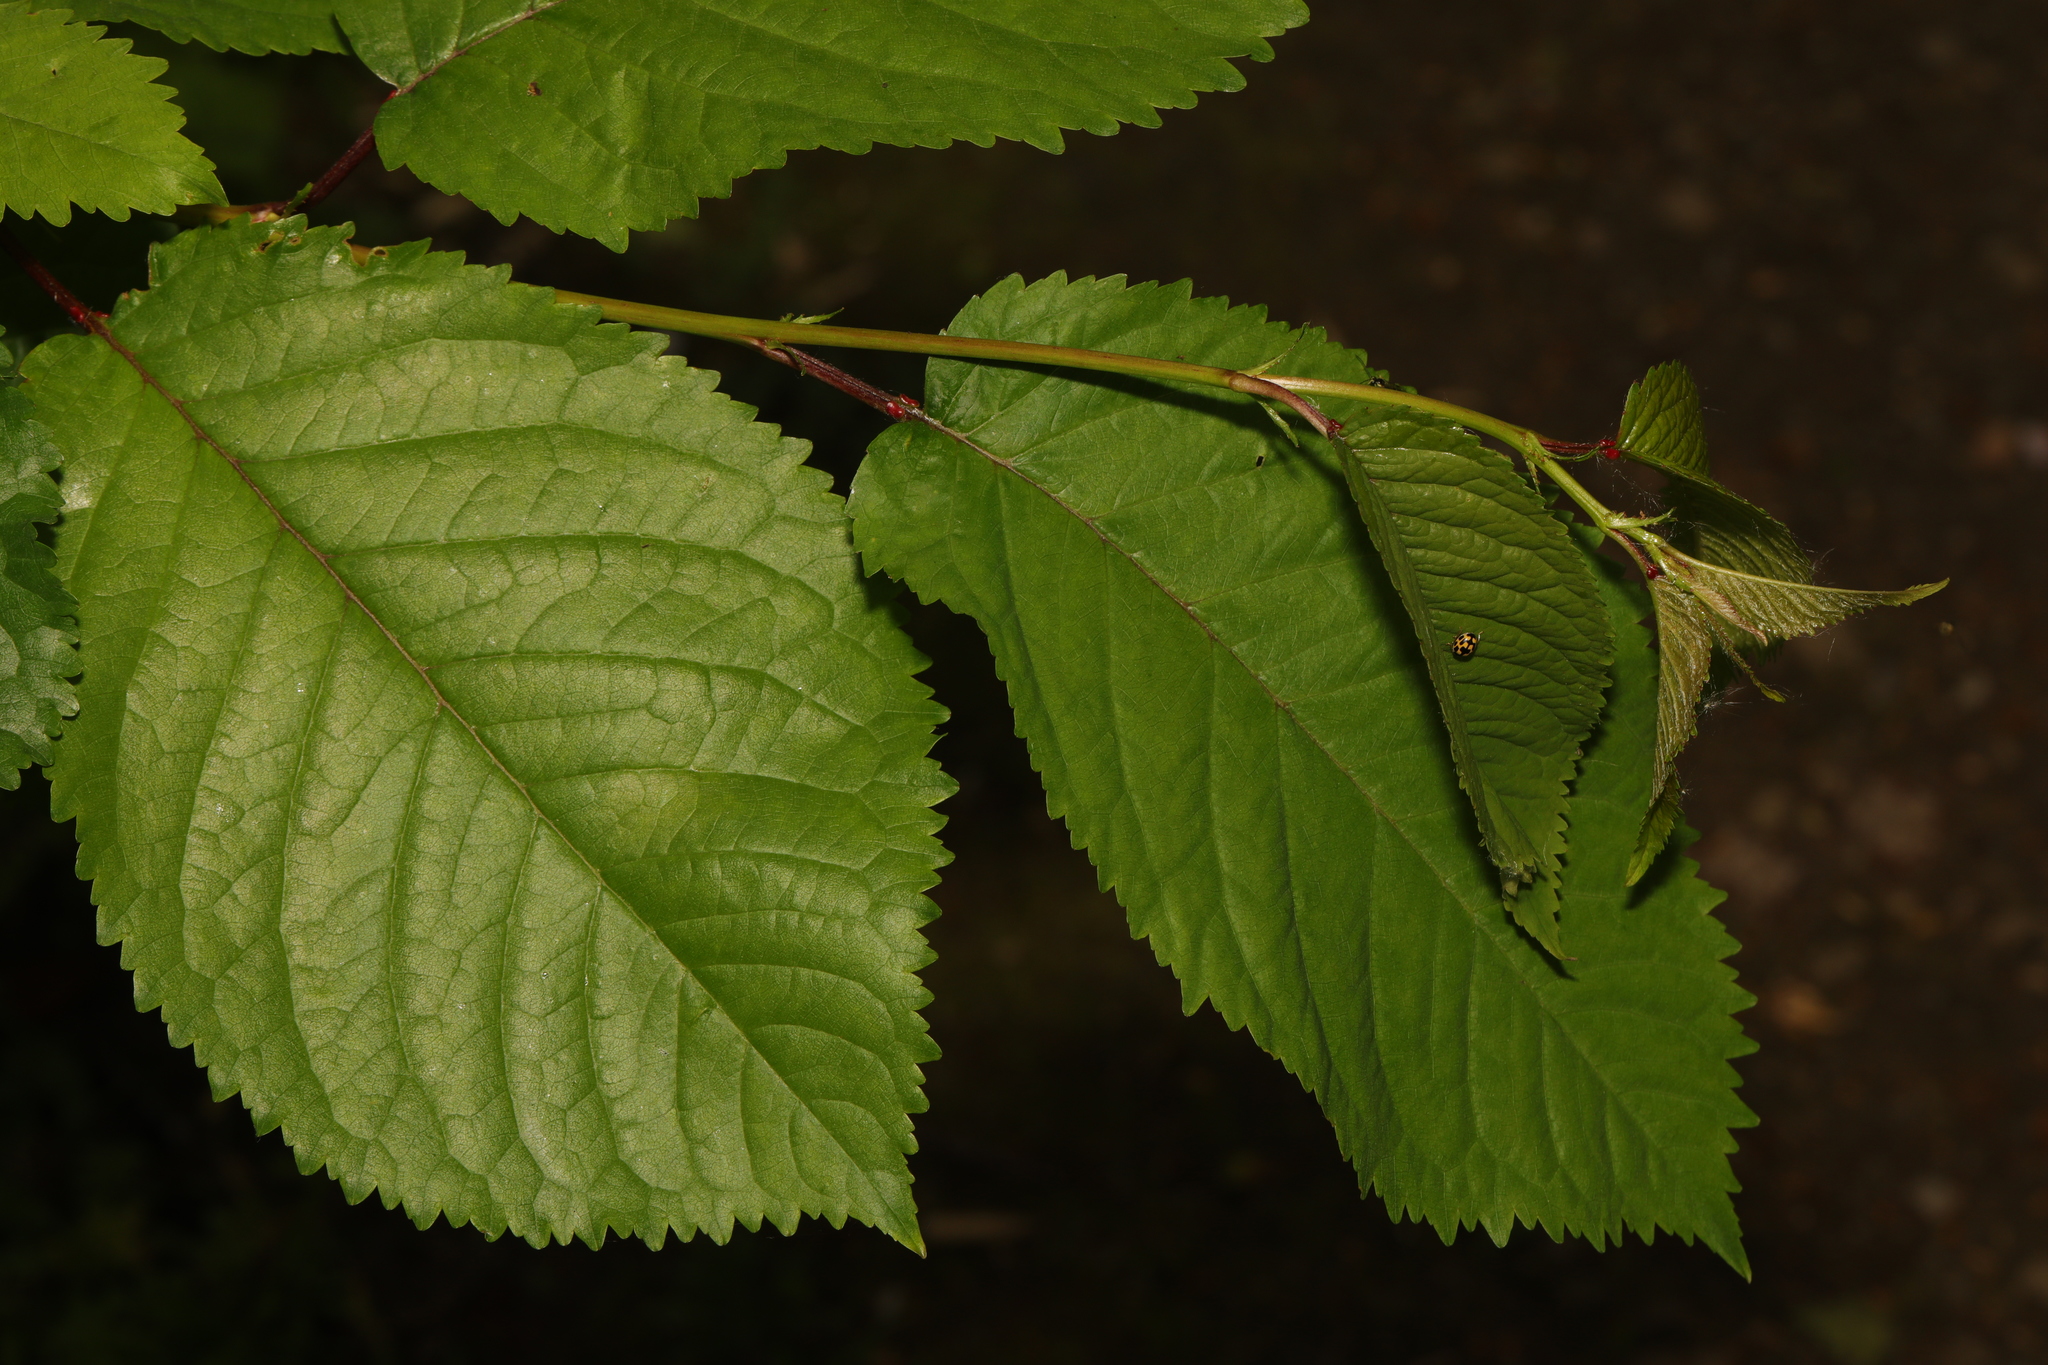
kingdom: Plantae
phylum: Tracheophyta
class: Magnoliopsida
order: Rosales
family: Rosaceae
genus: Prunus
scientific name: Prunus avium
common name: Sweet cherry
